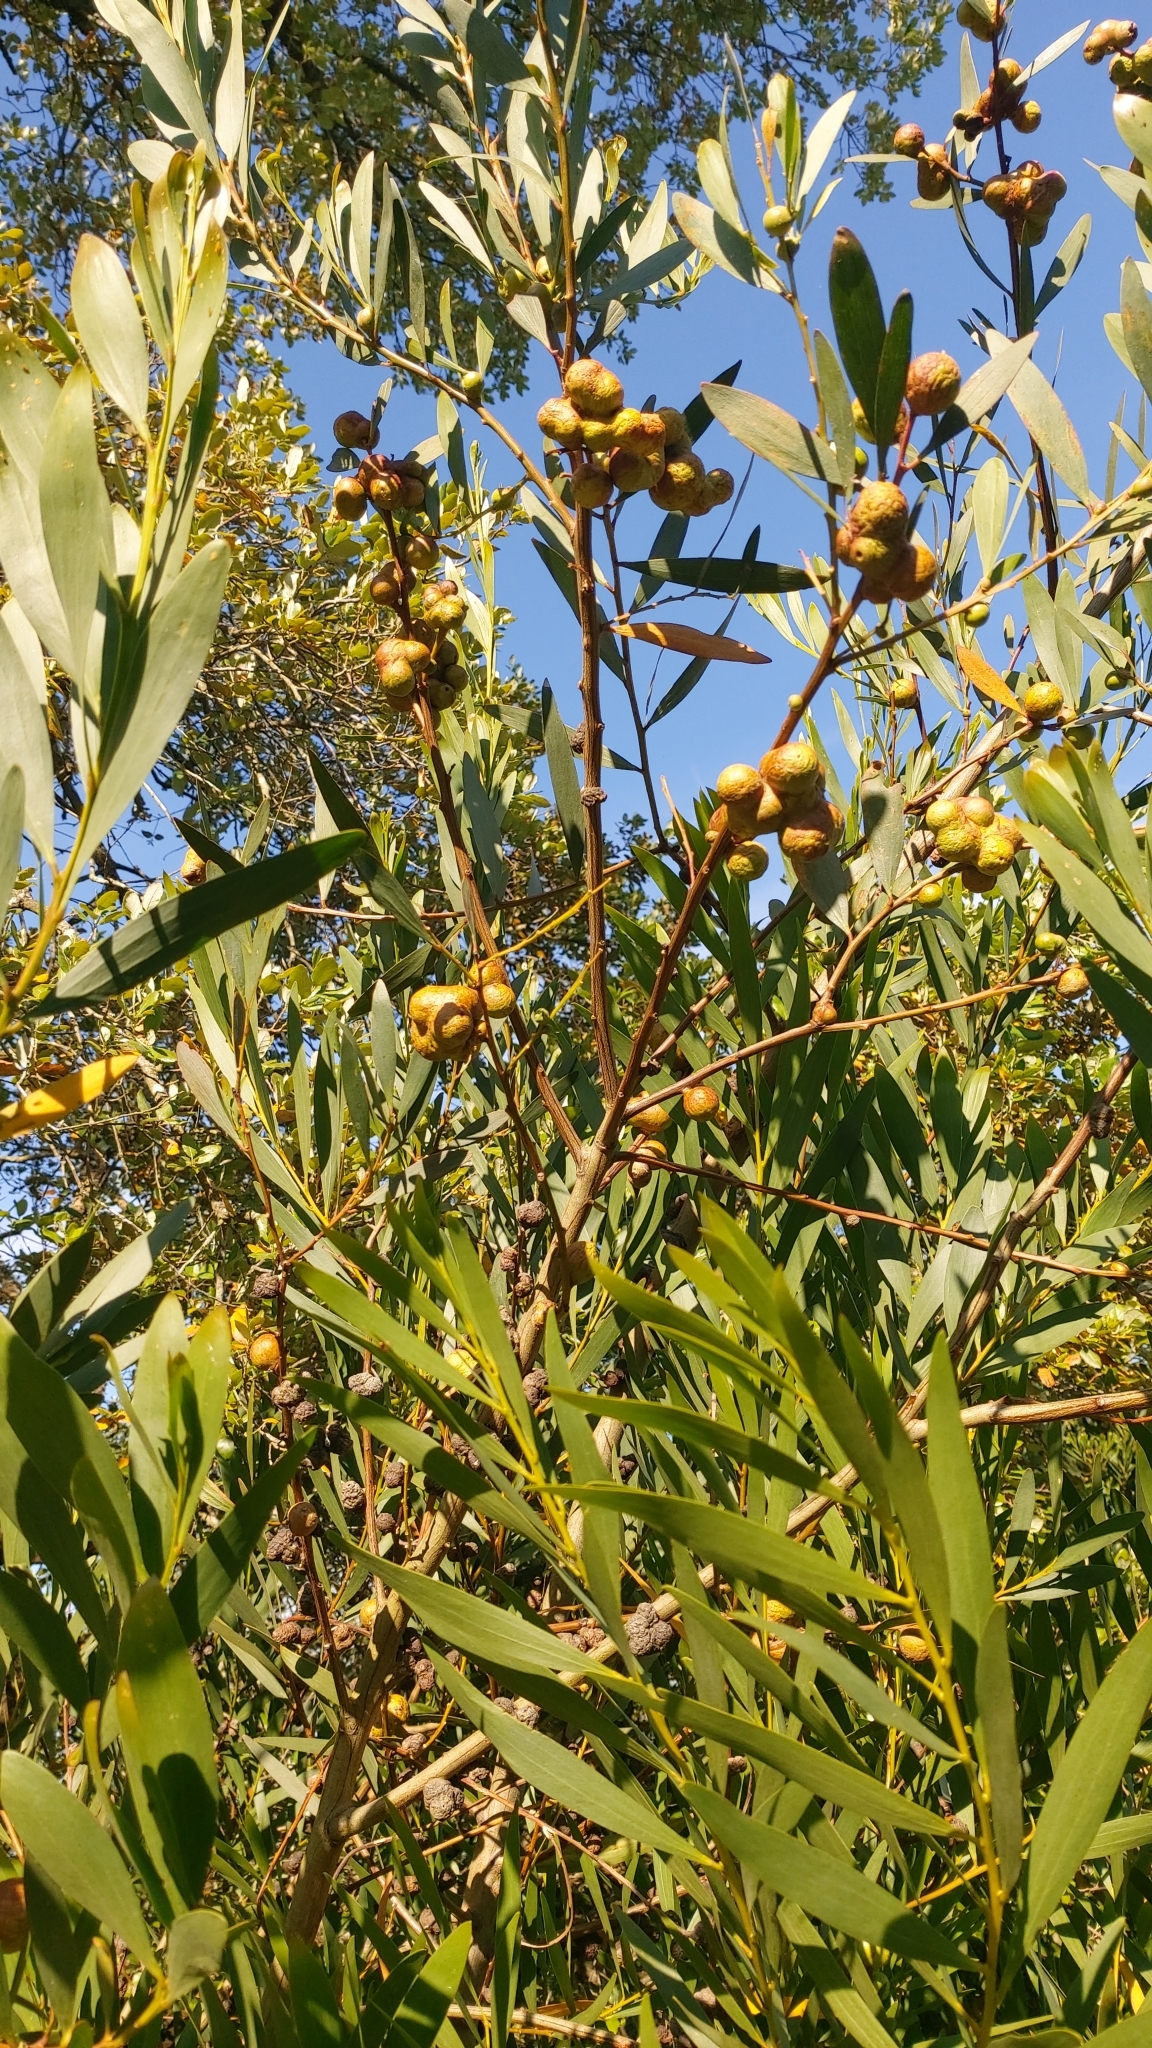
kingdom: Animalia
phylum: Arthropoda
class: Insecta
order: Hymenoptera
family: Pteromalidae
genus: Trichilogaster
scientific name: Trichilogaster acaciaelongifoliae
